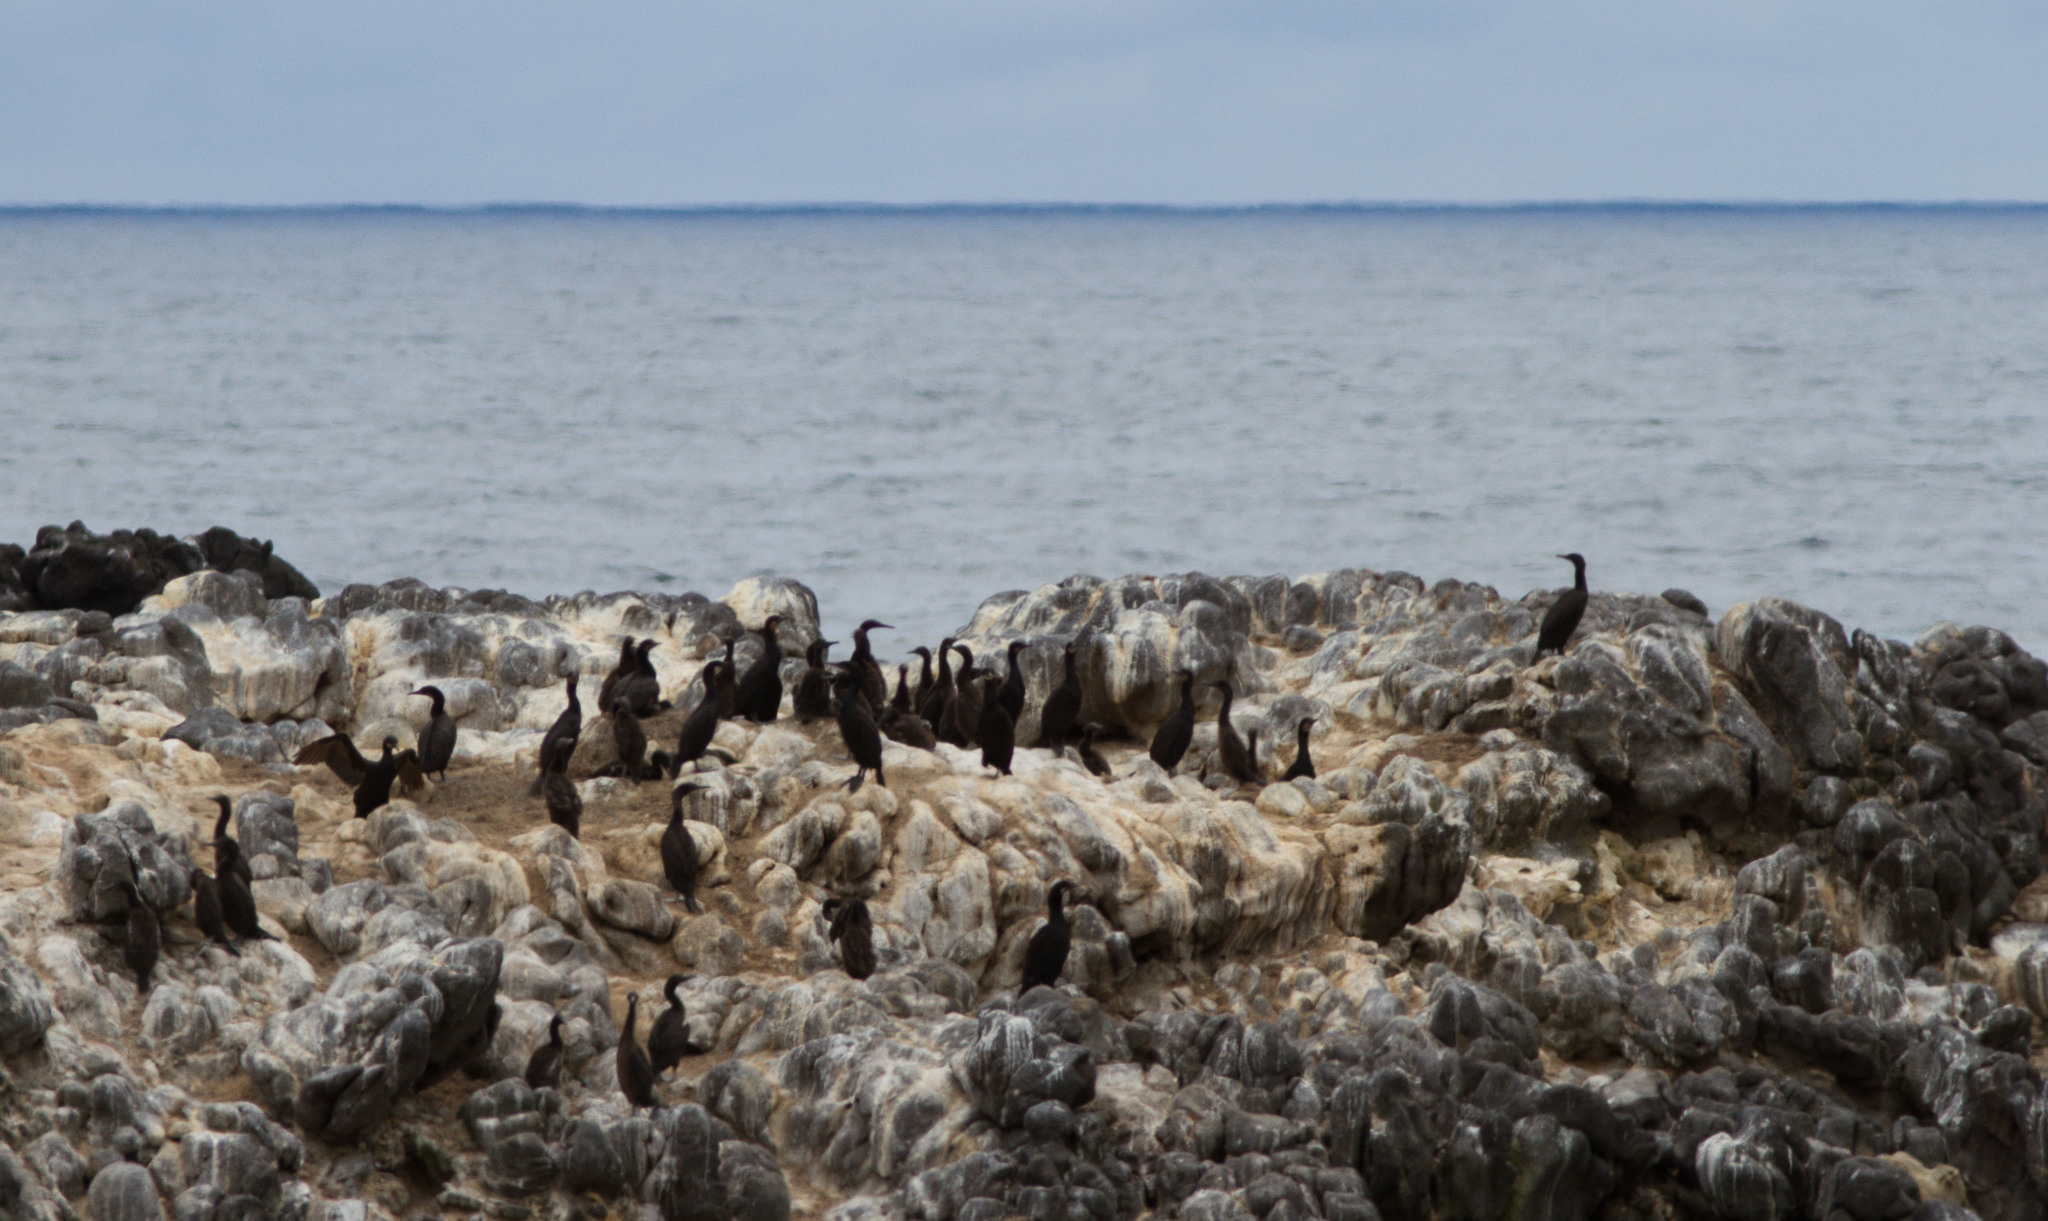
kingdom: Animalia
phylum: Chordata
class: Aves
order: Suliformes
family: Phalacrocoracidae
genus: Urile
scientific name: Urile penicillatus
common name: Brandt's cormorant
